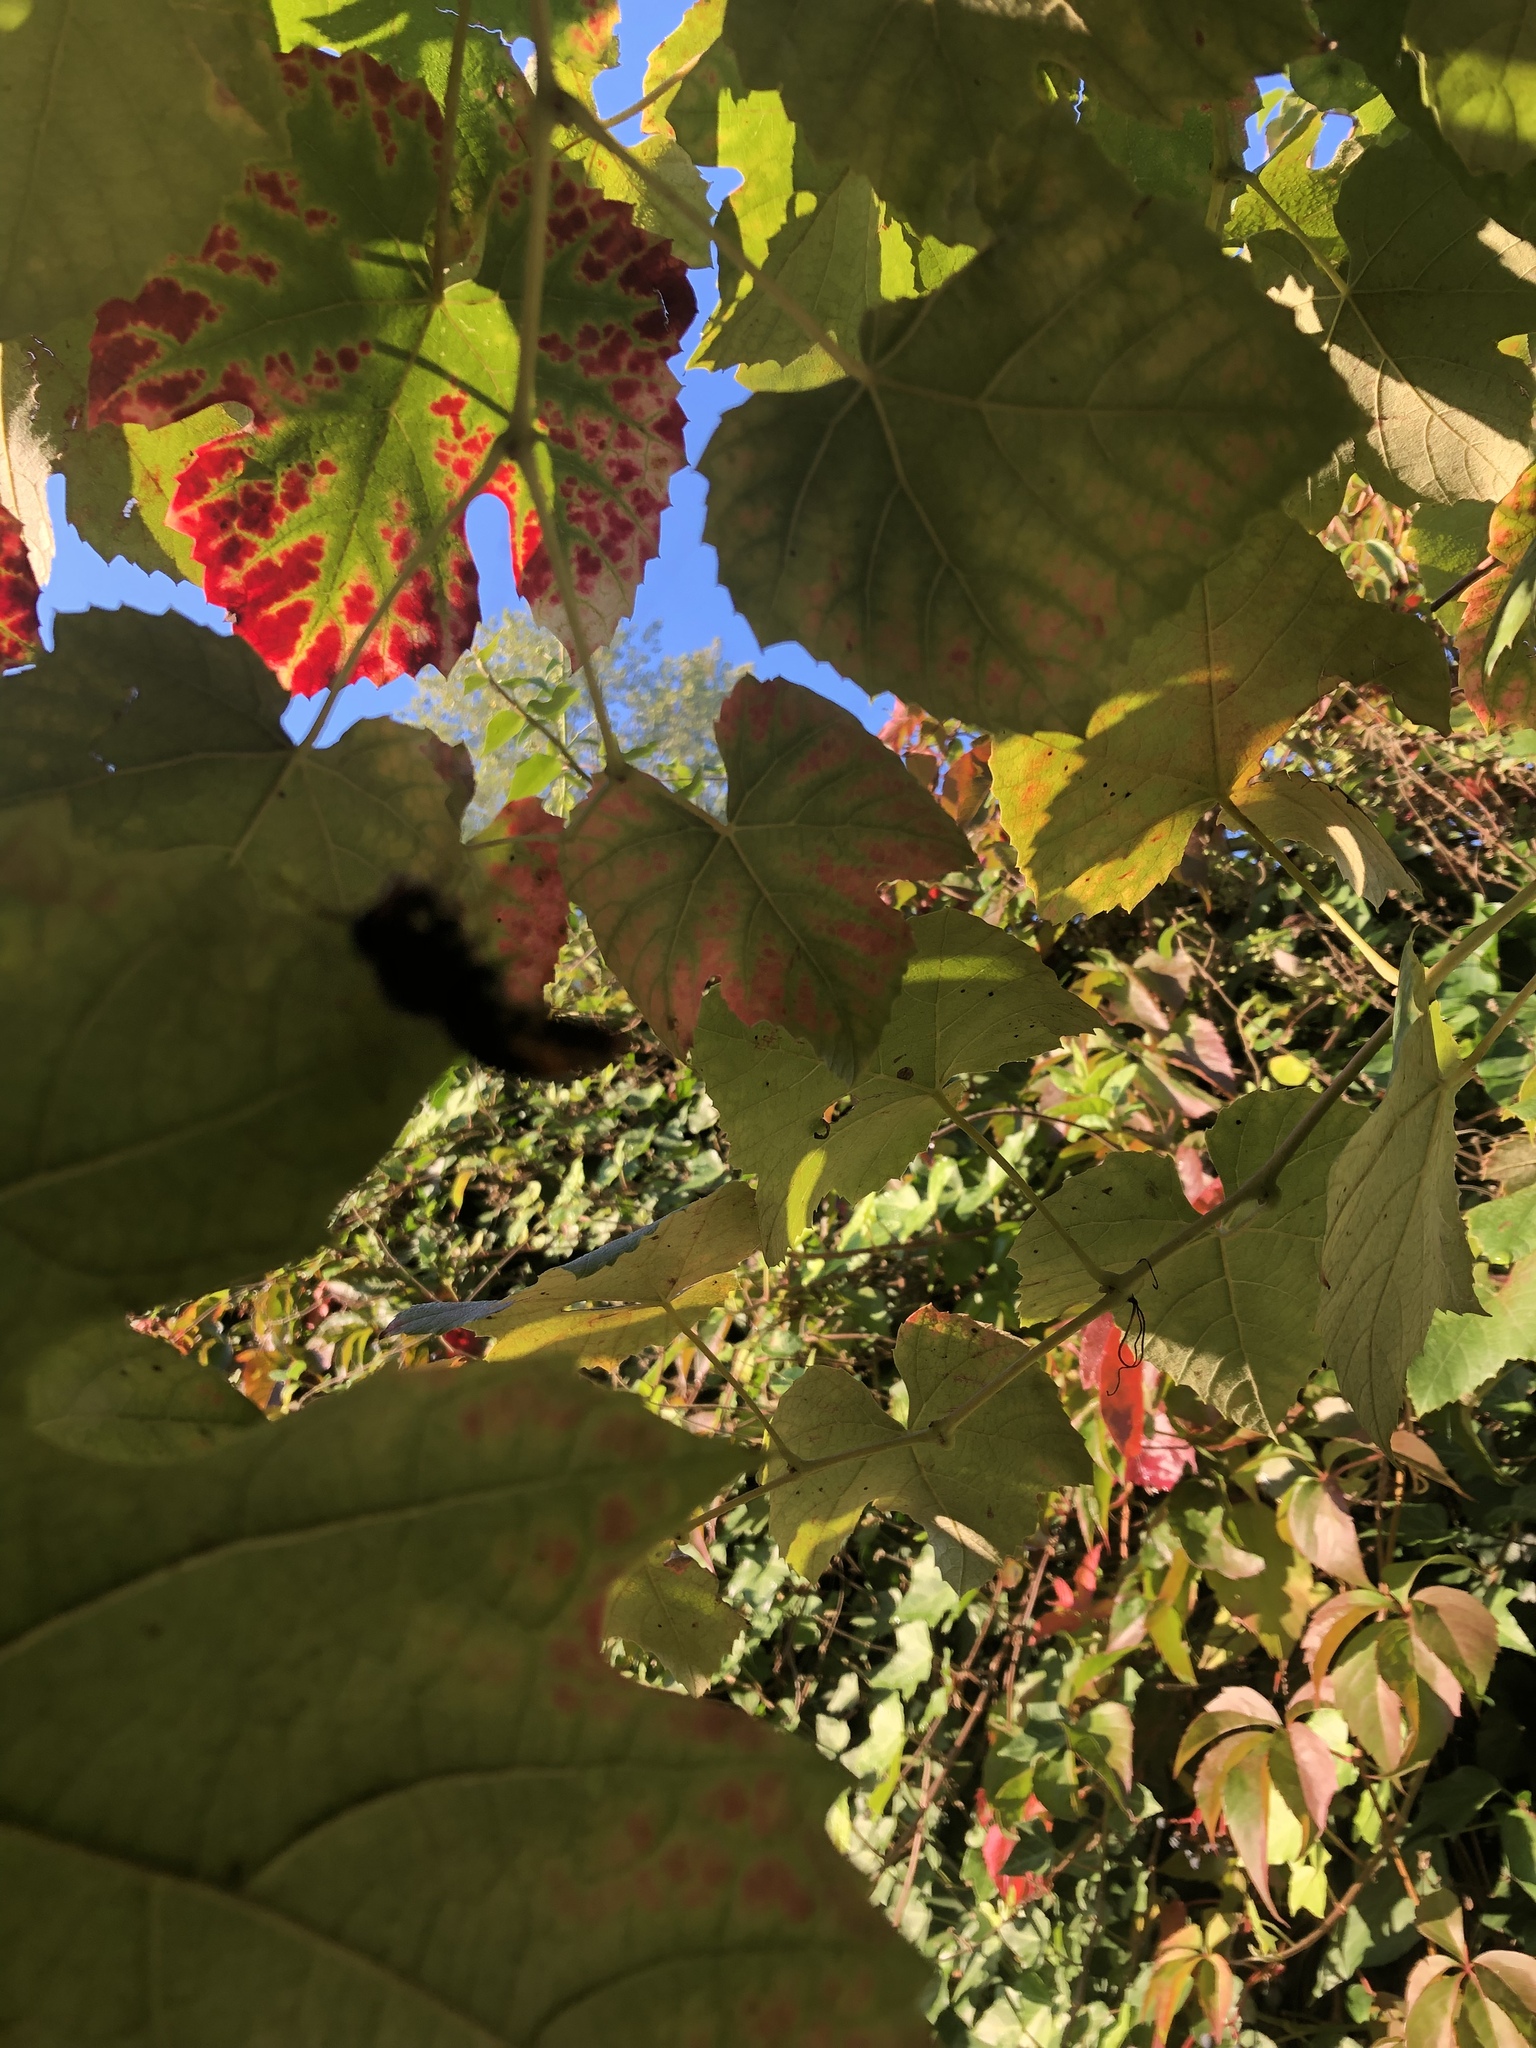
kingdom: Animalia
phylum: Arthropoda
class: Insecta
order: Hymenoptera
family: Vespidae
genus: Vespa
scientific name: Vespa velutina
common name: Asian hornet
